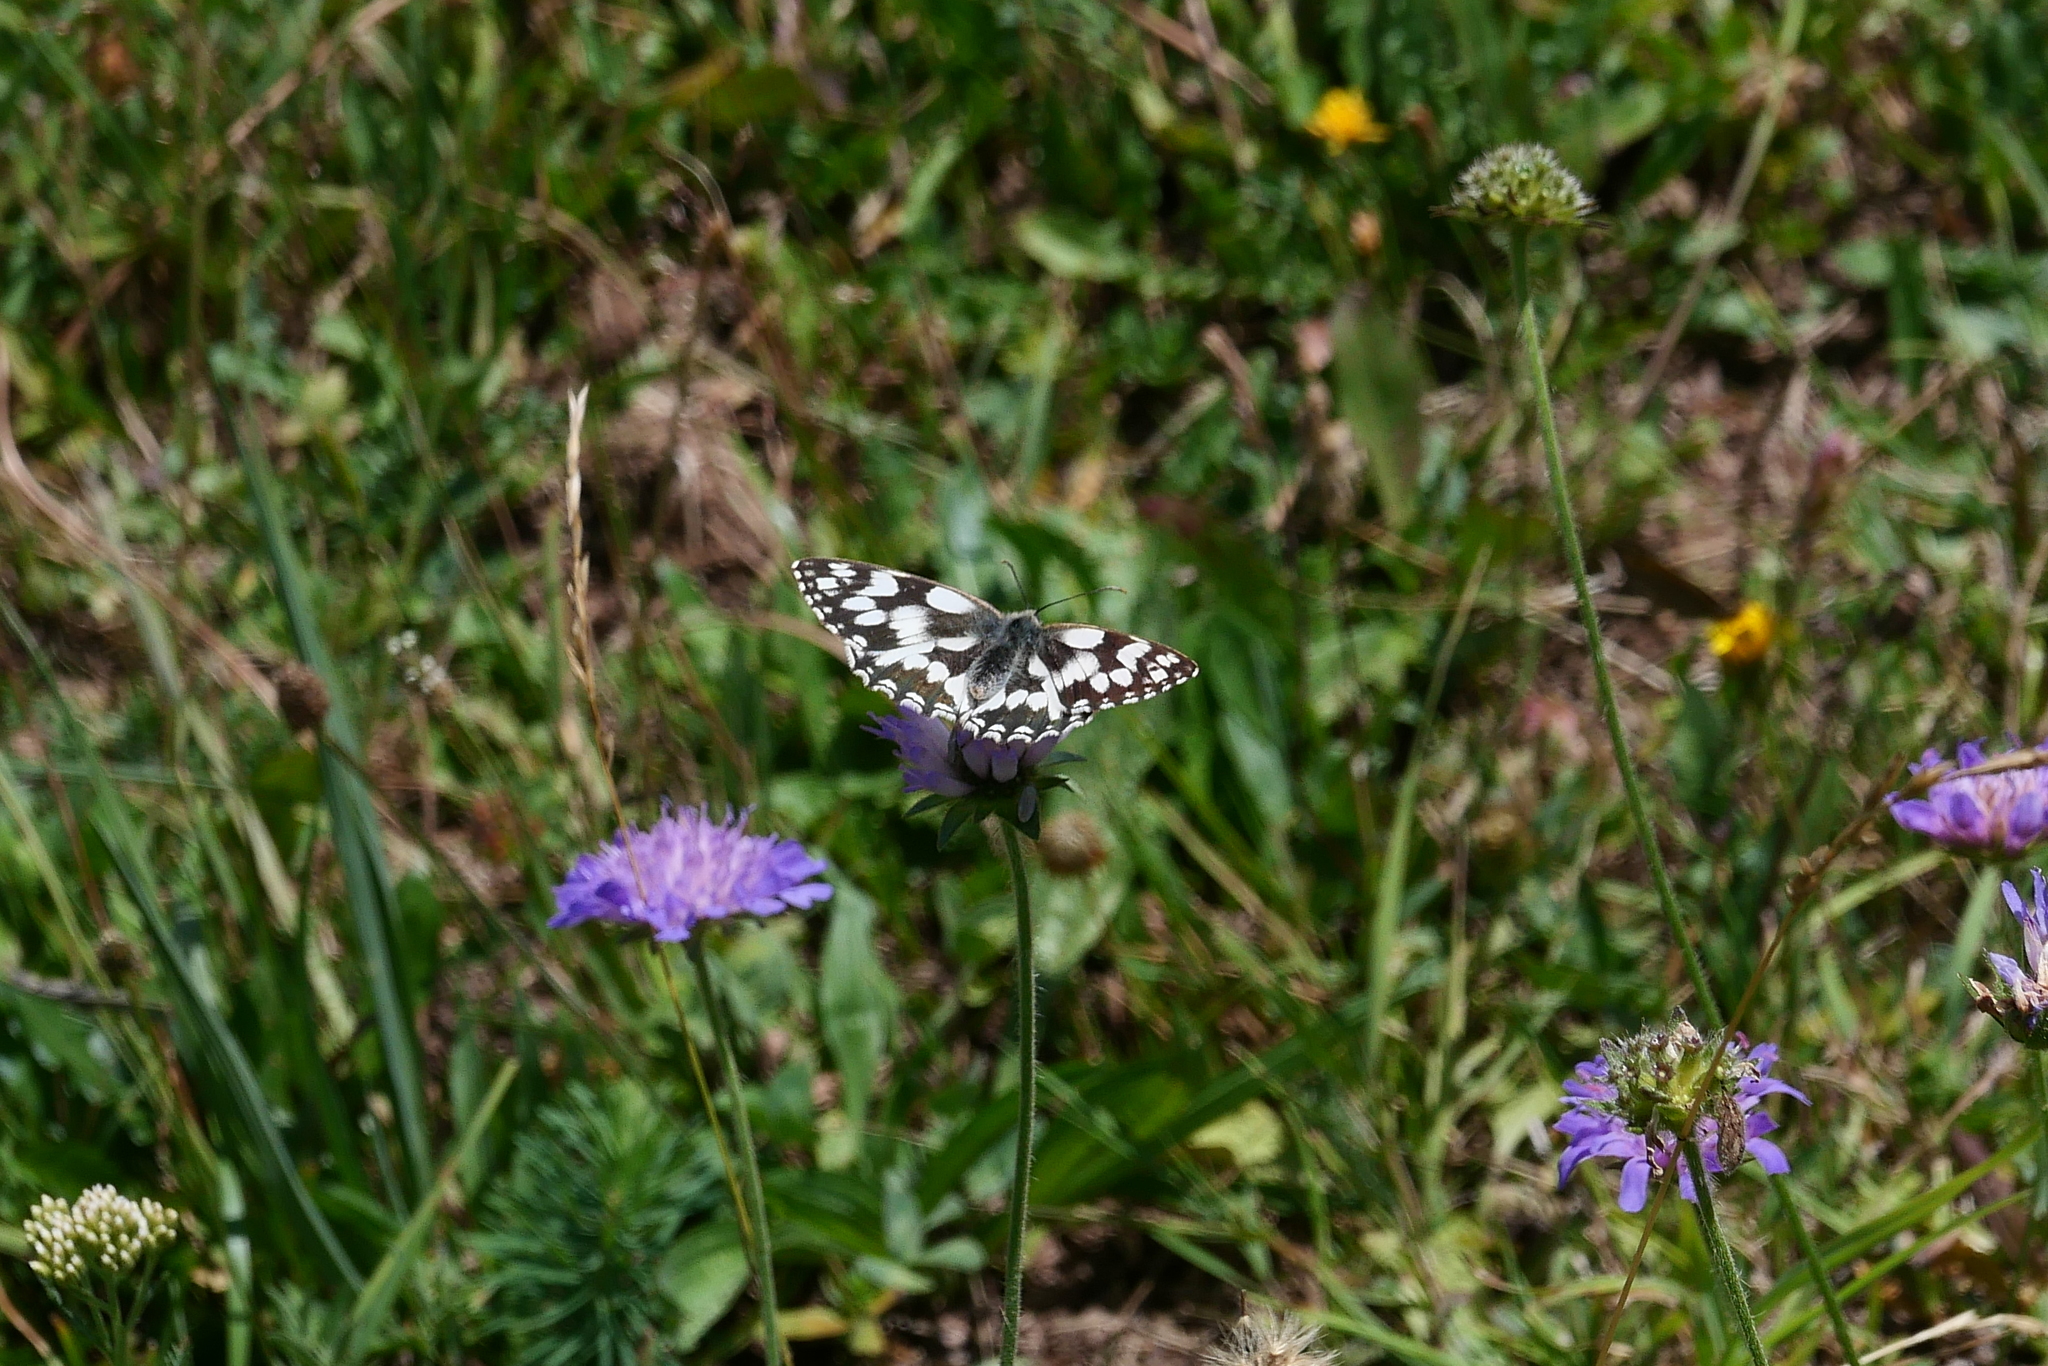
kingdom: Animalia
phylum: Arthropoda
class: Insecta
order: Lepidoptera
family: Nymphalidae
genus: Melanargia
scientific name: Melanargia galathea
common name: Marbled white
